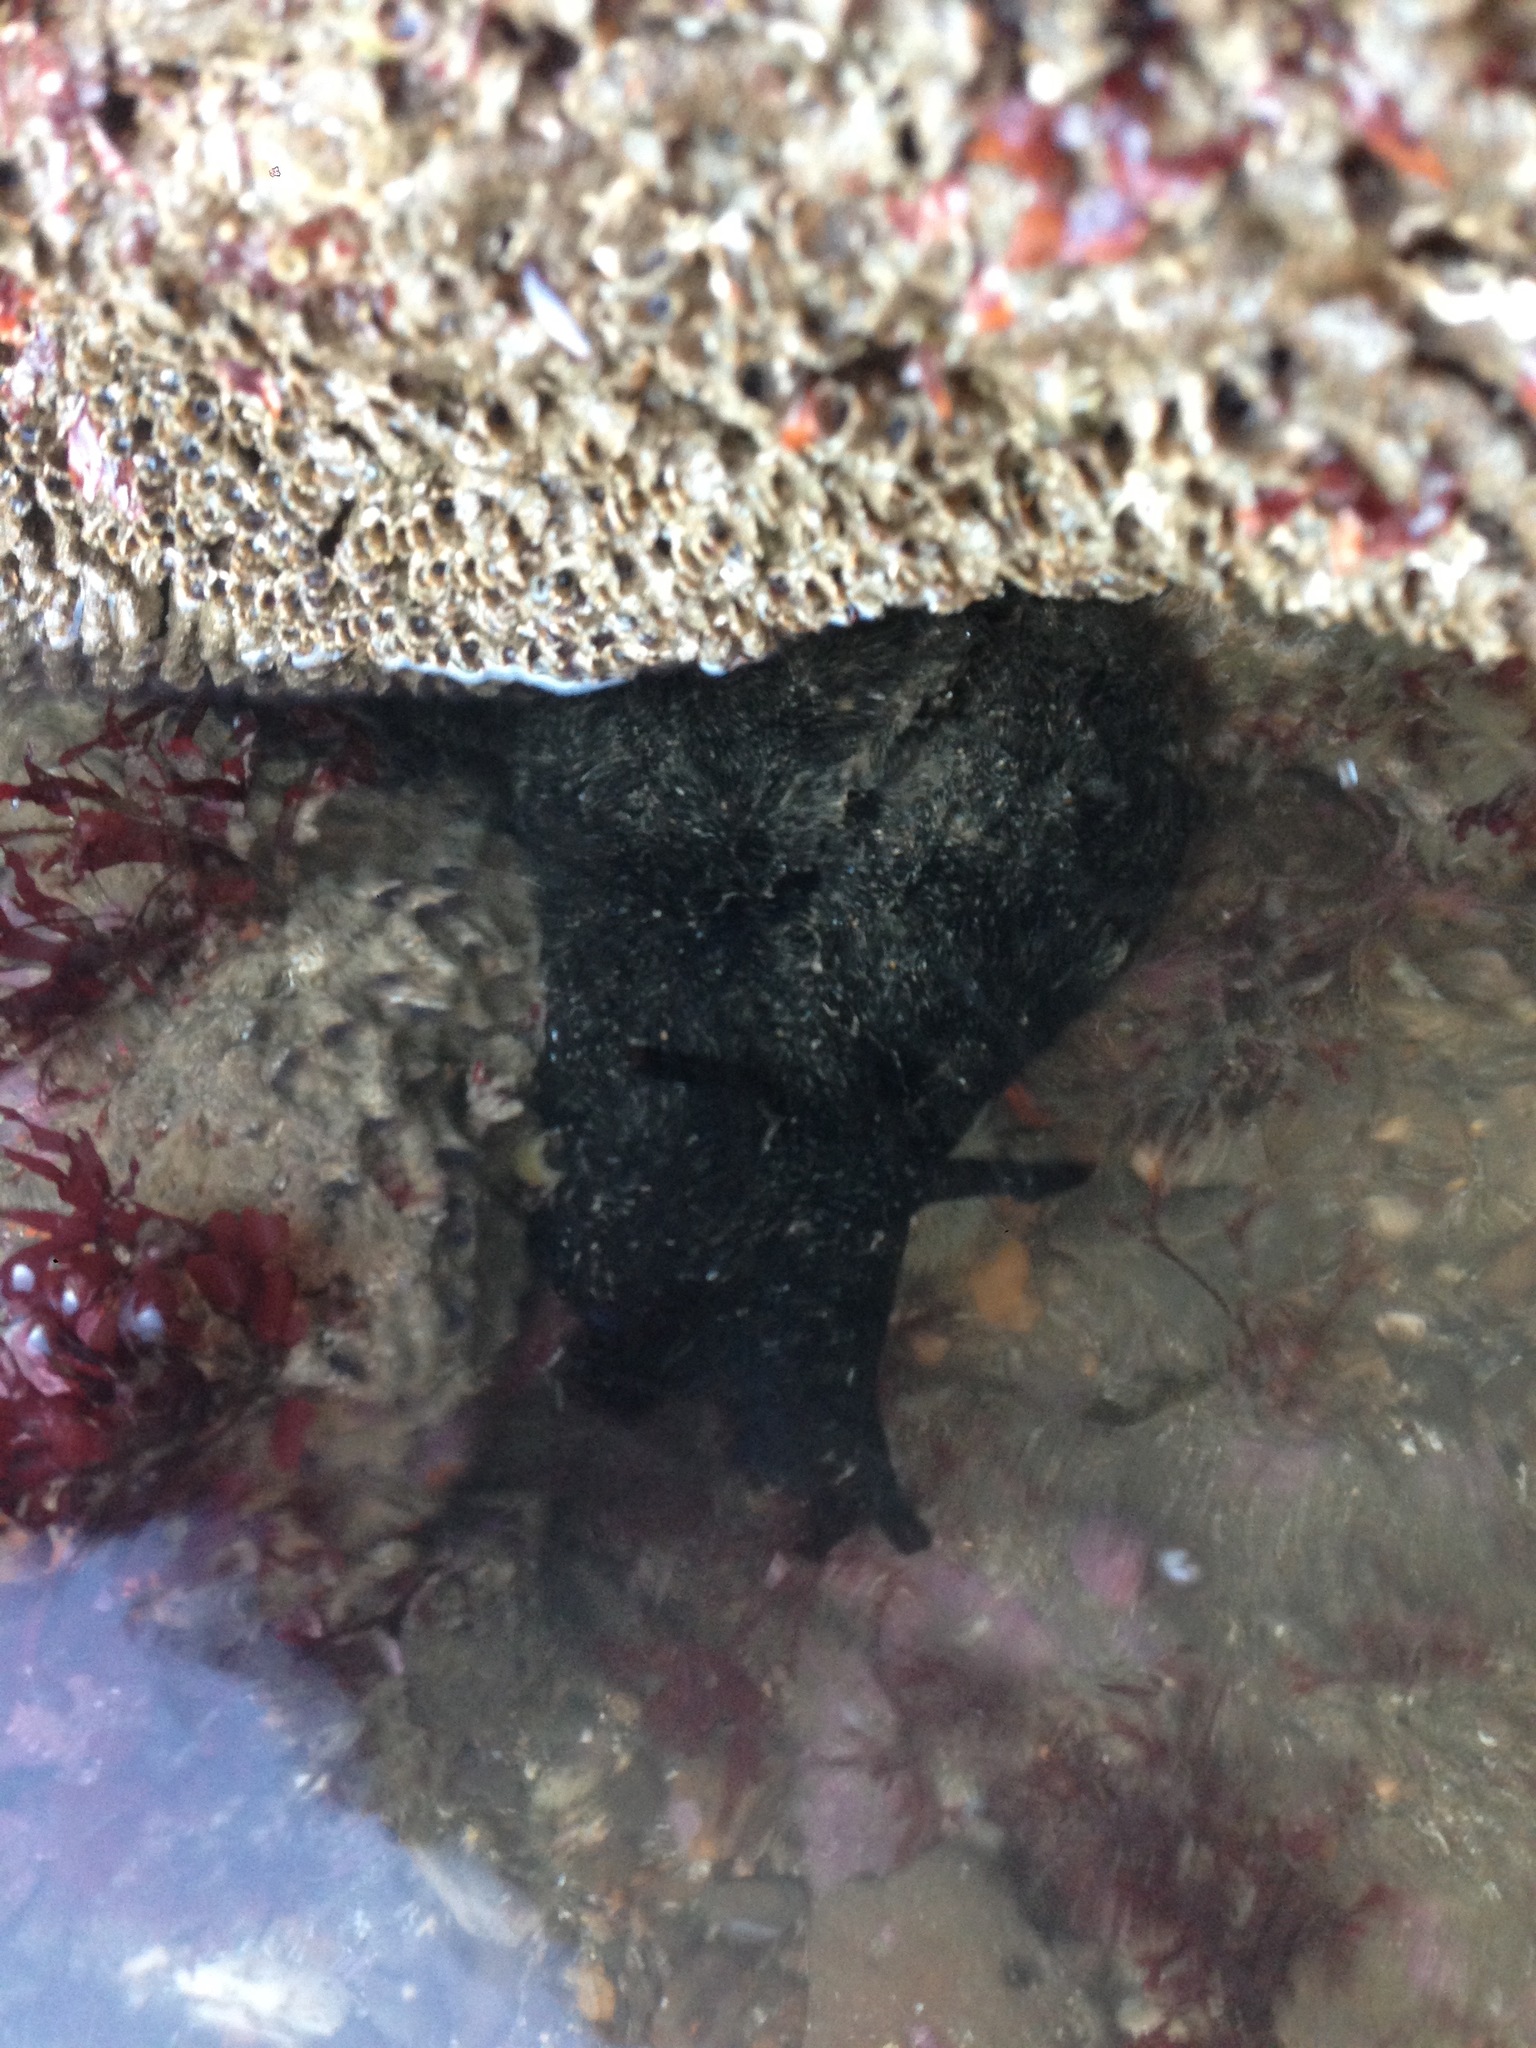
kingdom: Animalia
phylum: Mollusca
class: Gastropoda
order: Aplysiida
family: Aplysiidae
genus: Aplysia
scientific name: Aplysia vaccaria
